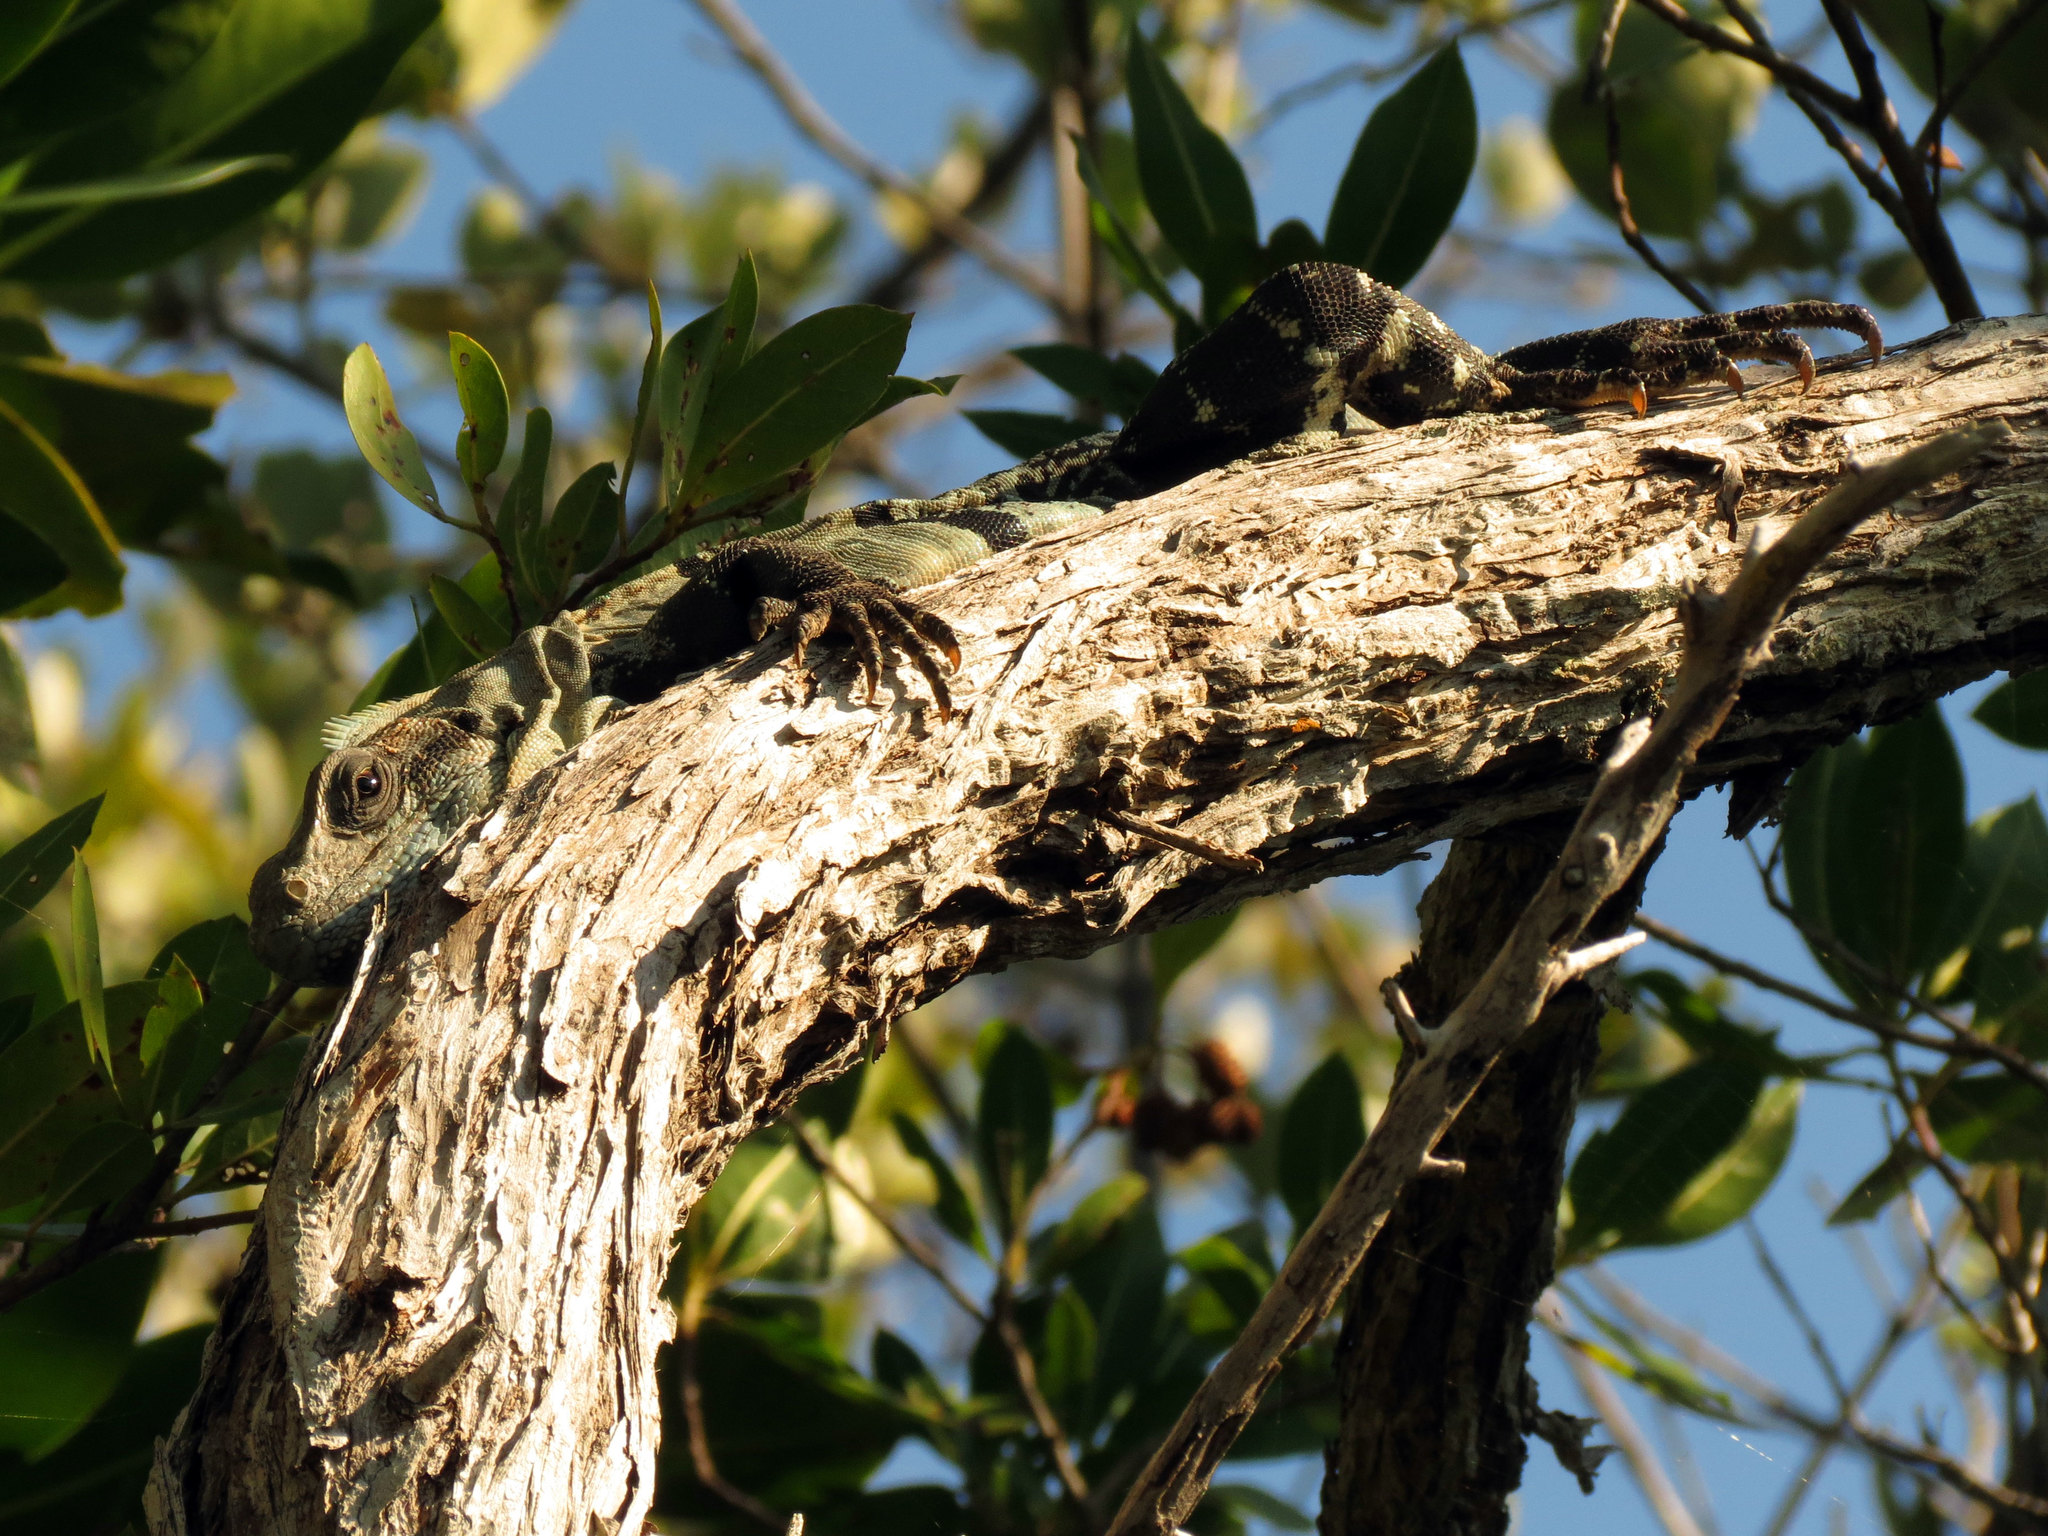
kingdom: Animalia
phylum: Chordata
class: Squamata
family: Iguanidae
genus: Ctenosaura
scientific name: Ctenosaura similis
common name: Black spiny-tailed iguana
